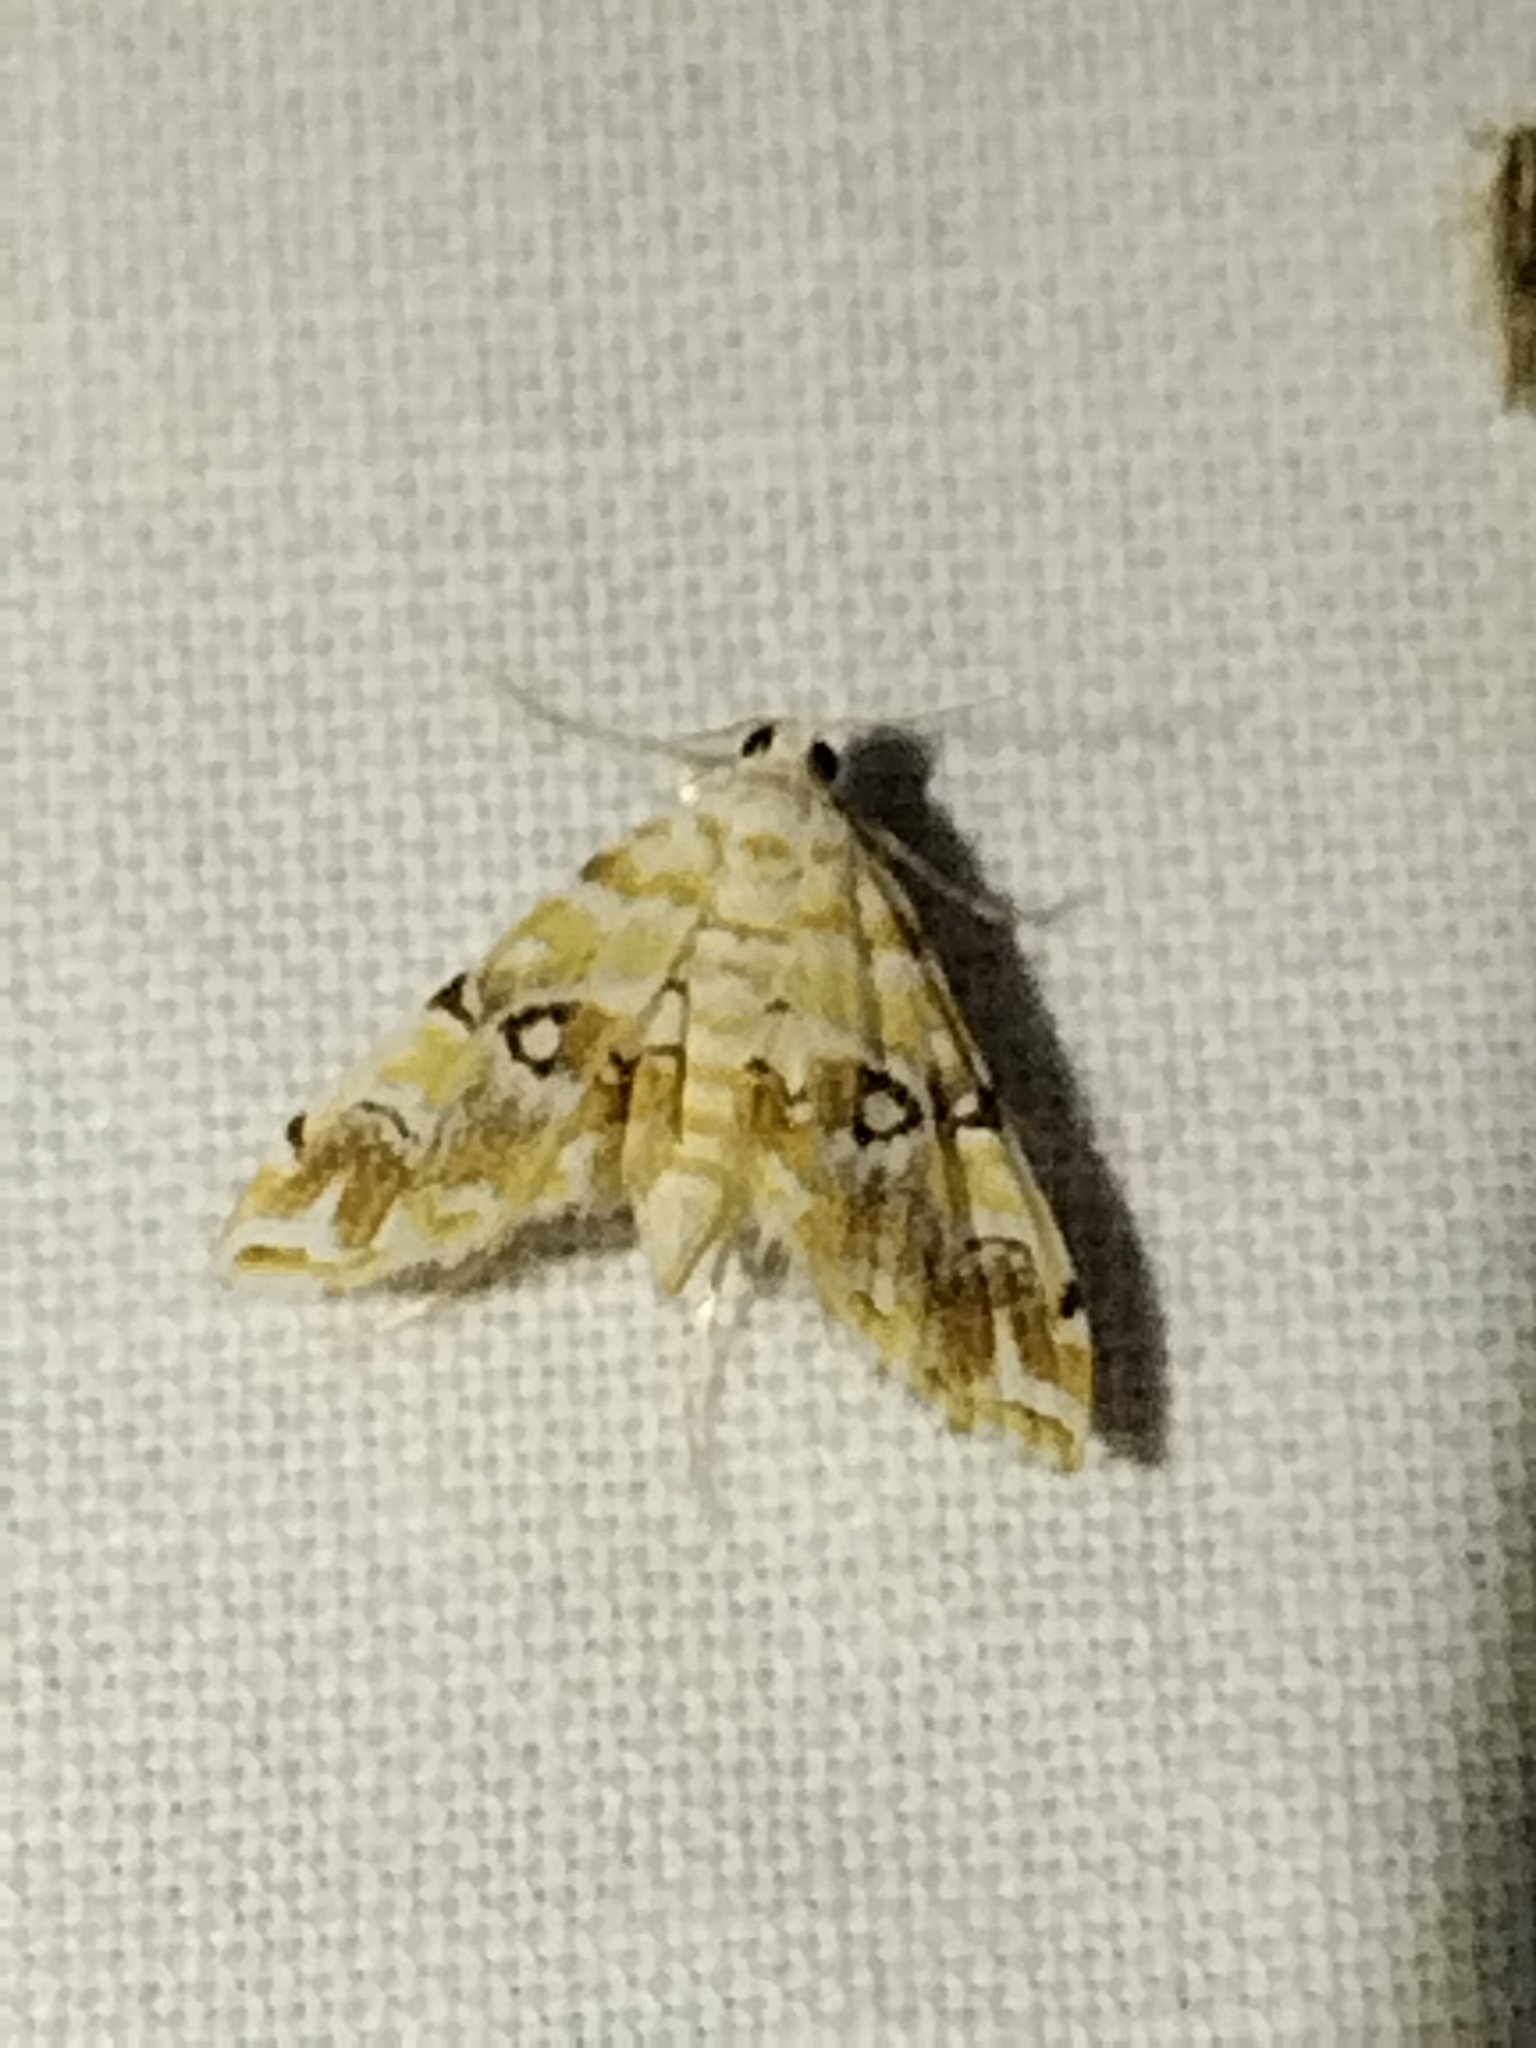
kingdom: Animalia
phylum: Arthropoda
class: Insecta
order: Lepidoptera
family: Crambidae
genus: Elophila
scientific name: Elophila icciusalis
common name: Pondside pyralid moth
